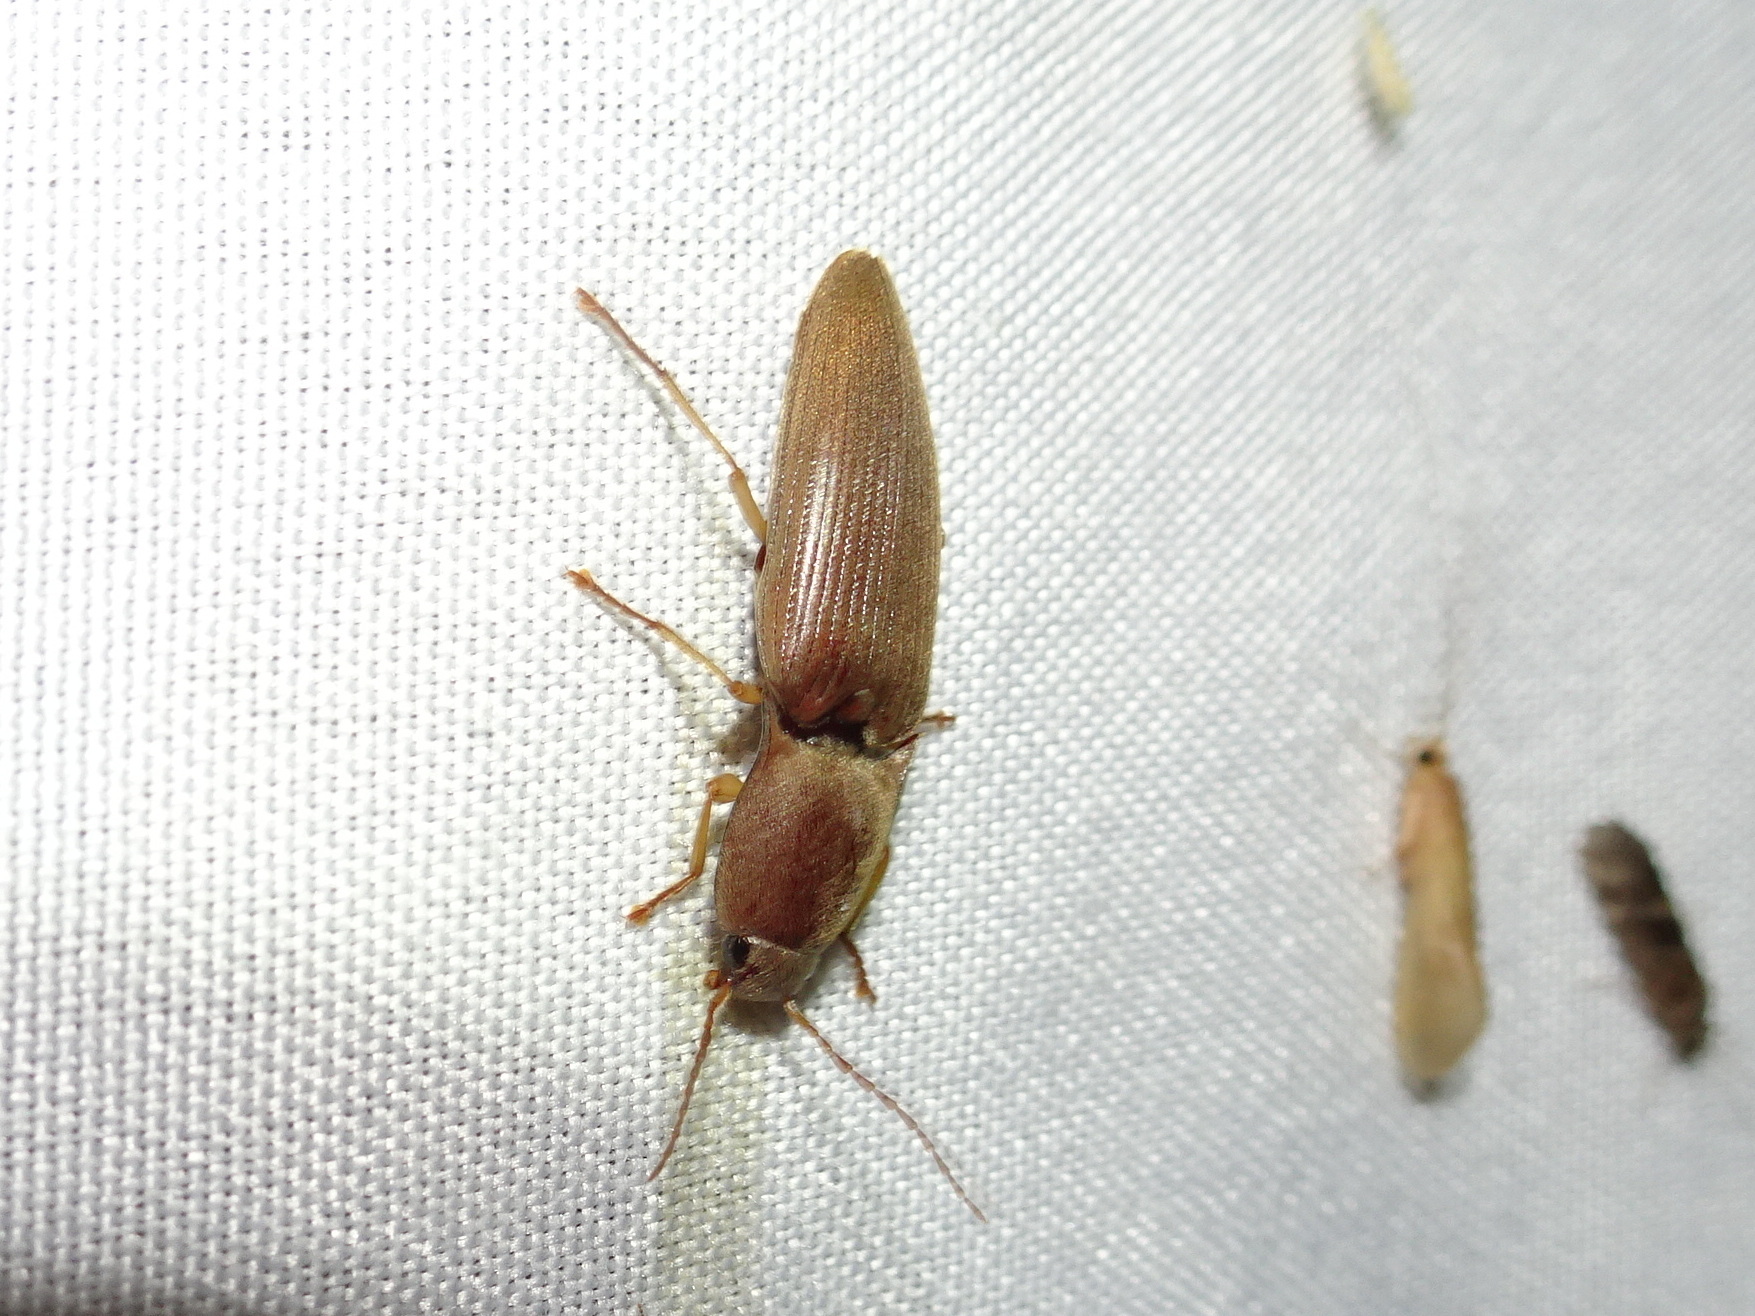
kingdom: Animalia
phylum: Arthropoda
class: Insecta
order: Coleoptera
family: Elateridae
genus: Monocrepidius
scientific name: Monocrepidius lividus
